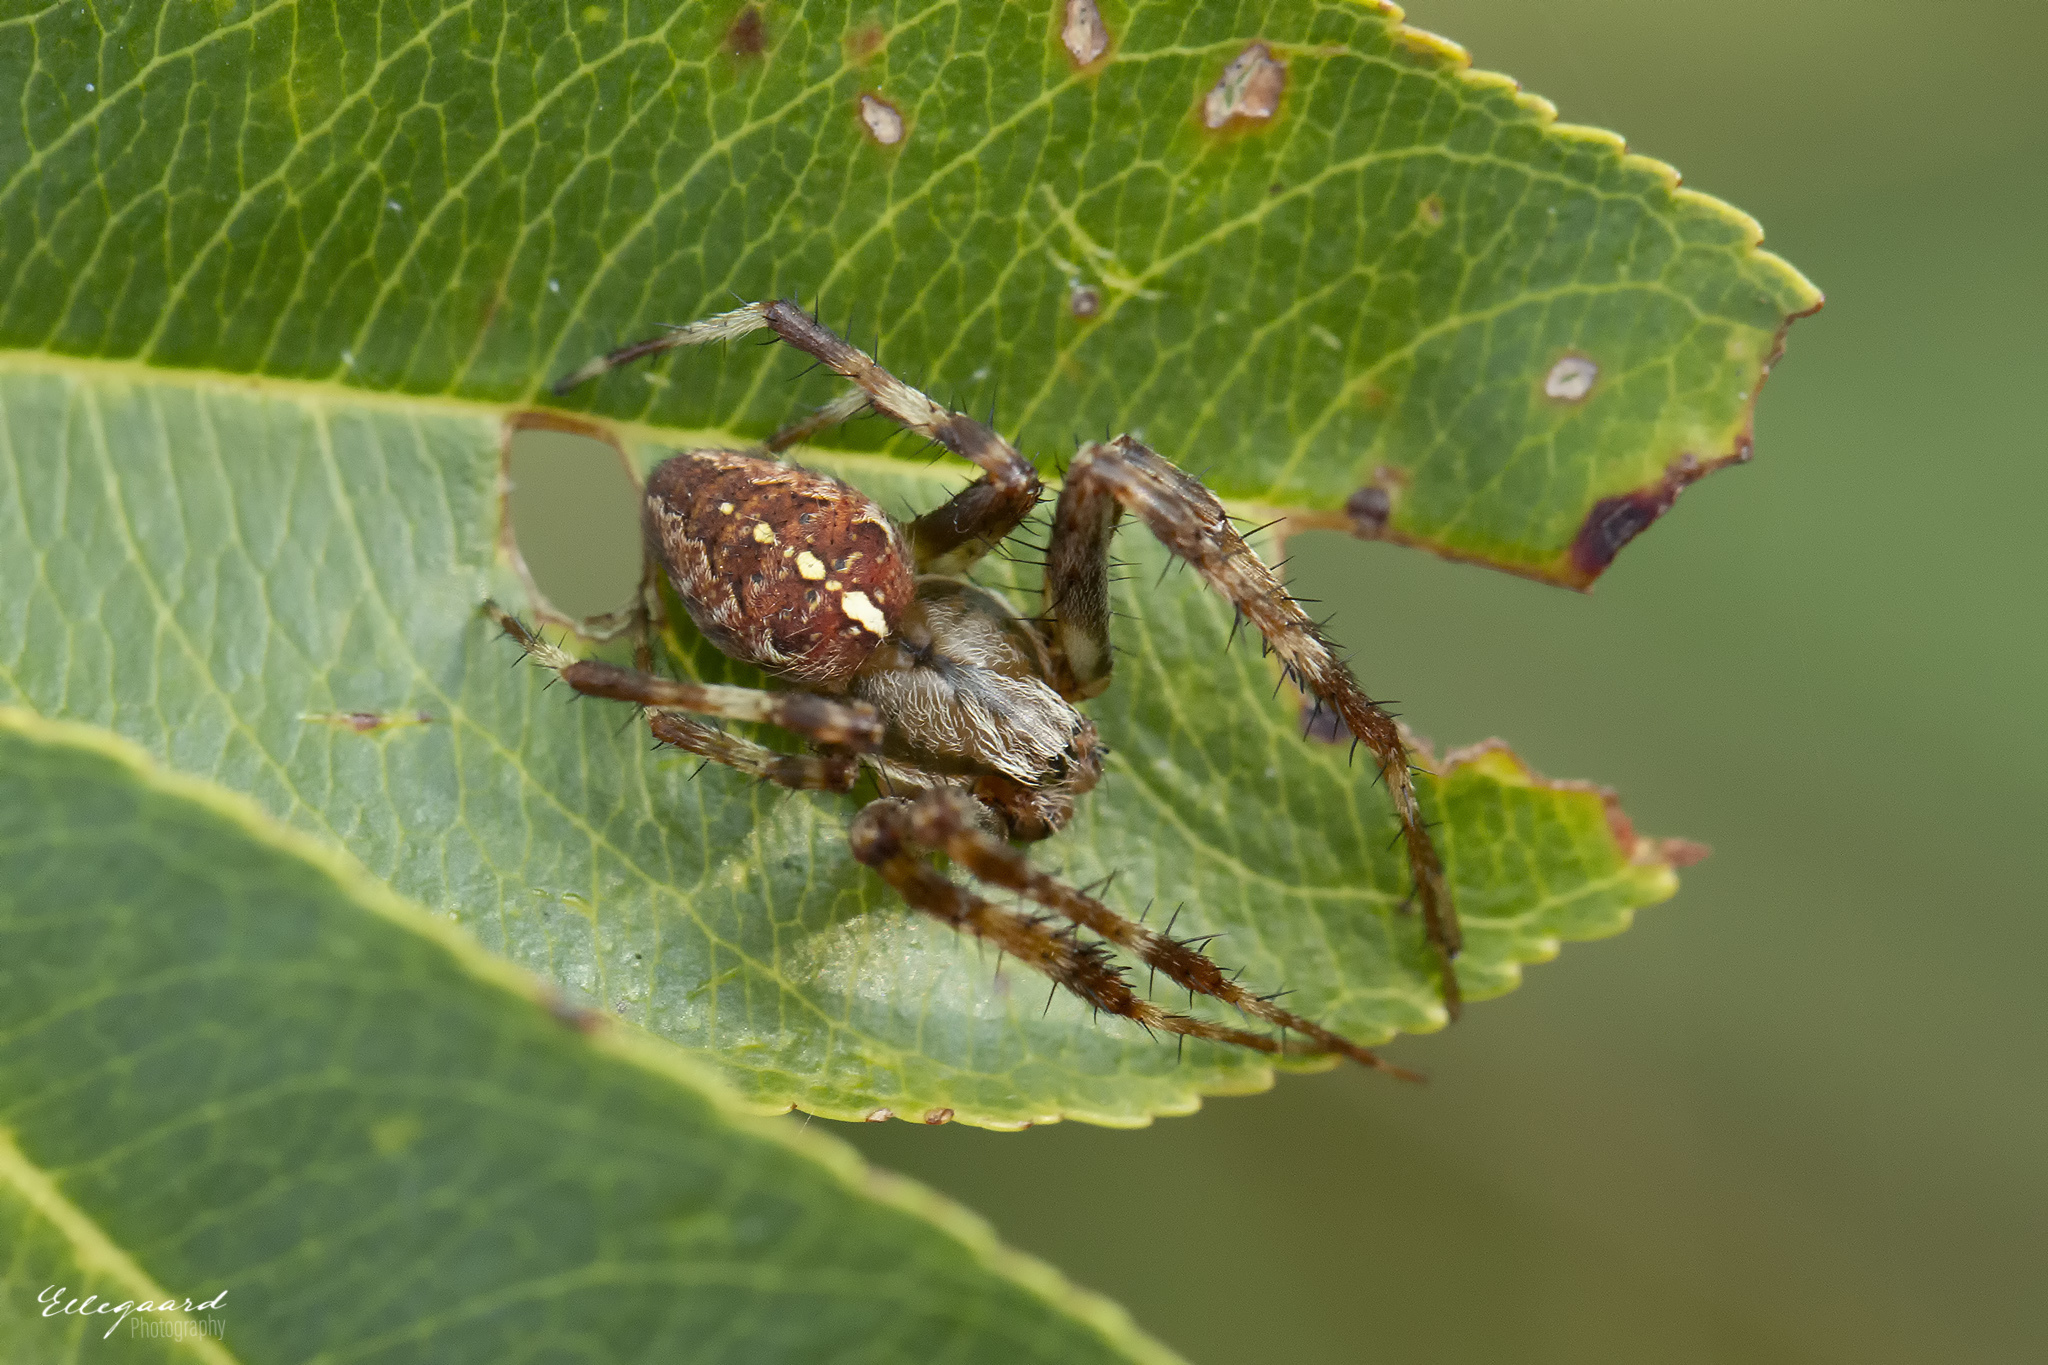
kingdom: Animalia
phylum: Arthropoda
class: Arachnida
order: Araneae
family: Araneidae
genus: Araneus
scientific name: Araneus diadematus
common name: Cross orbweaver
